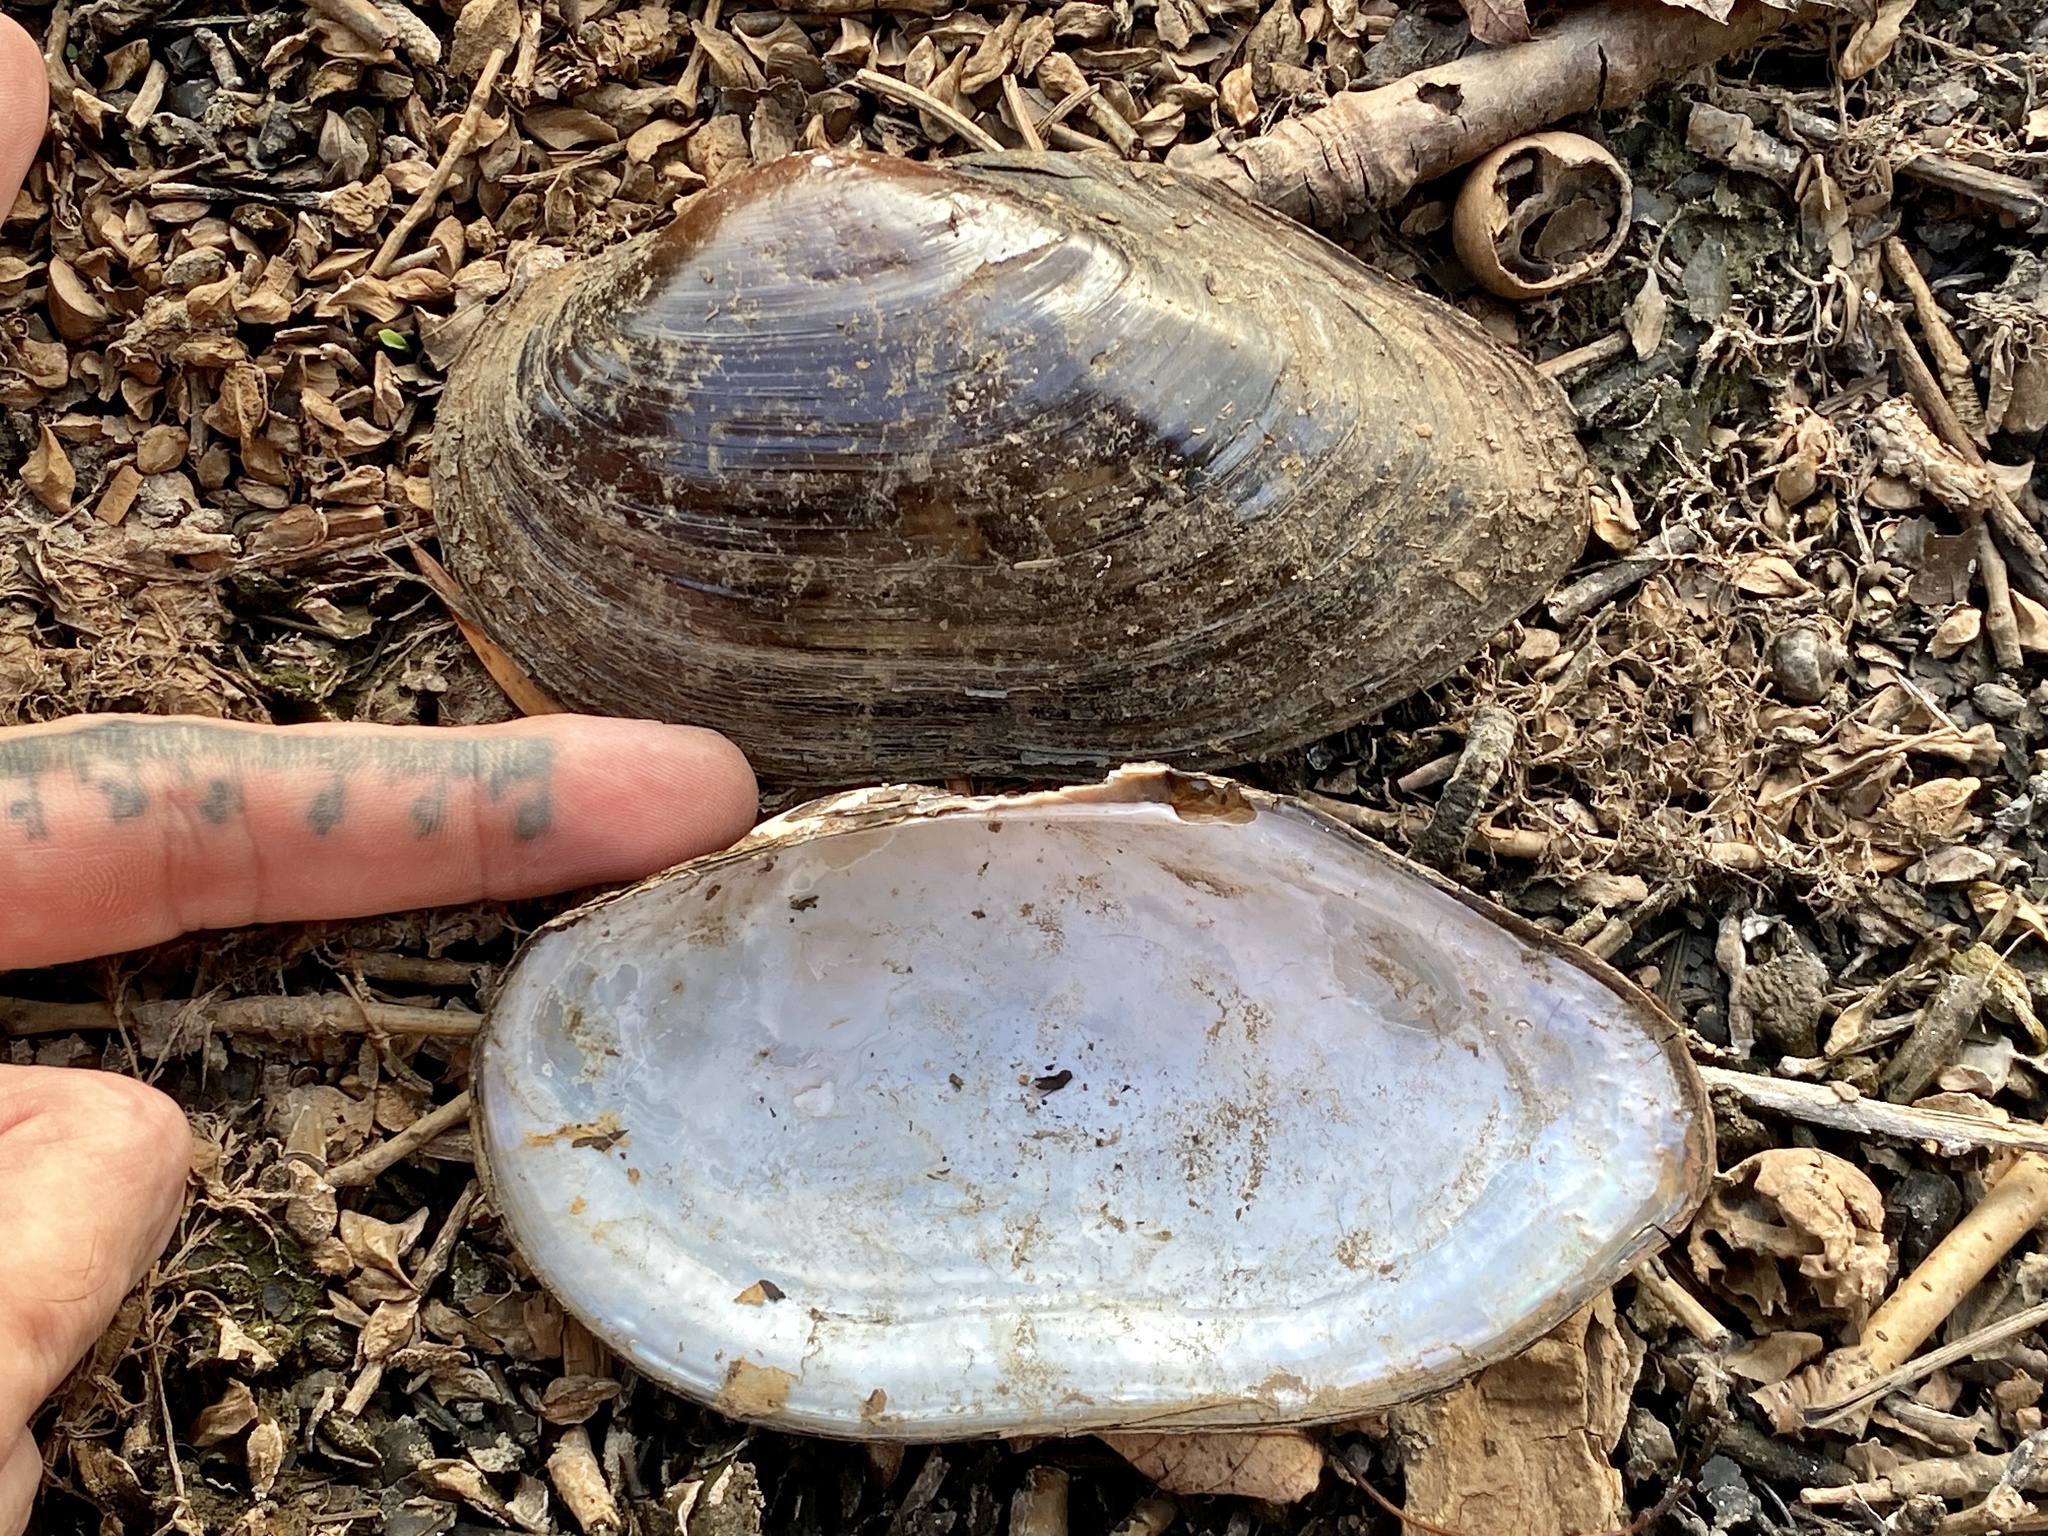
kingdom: Animalia
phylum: Mollusca
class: Bivalvia
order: Unionida
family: Unionidae
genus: Utterbackiana
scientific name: Utterbackiana implicata
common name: Alewife floater
